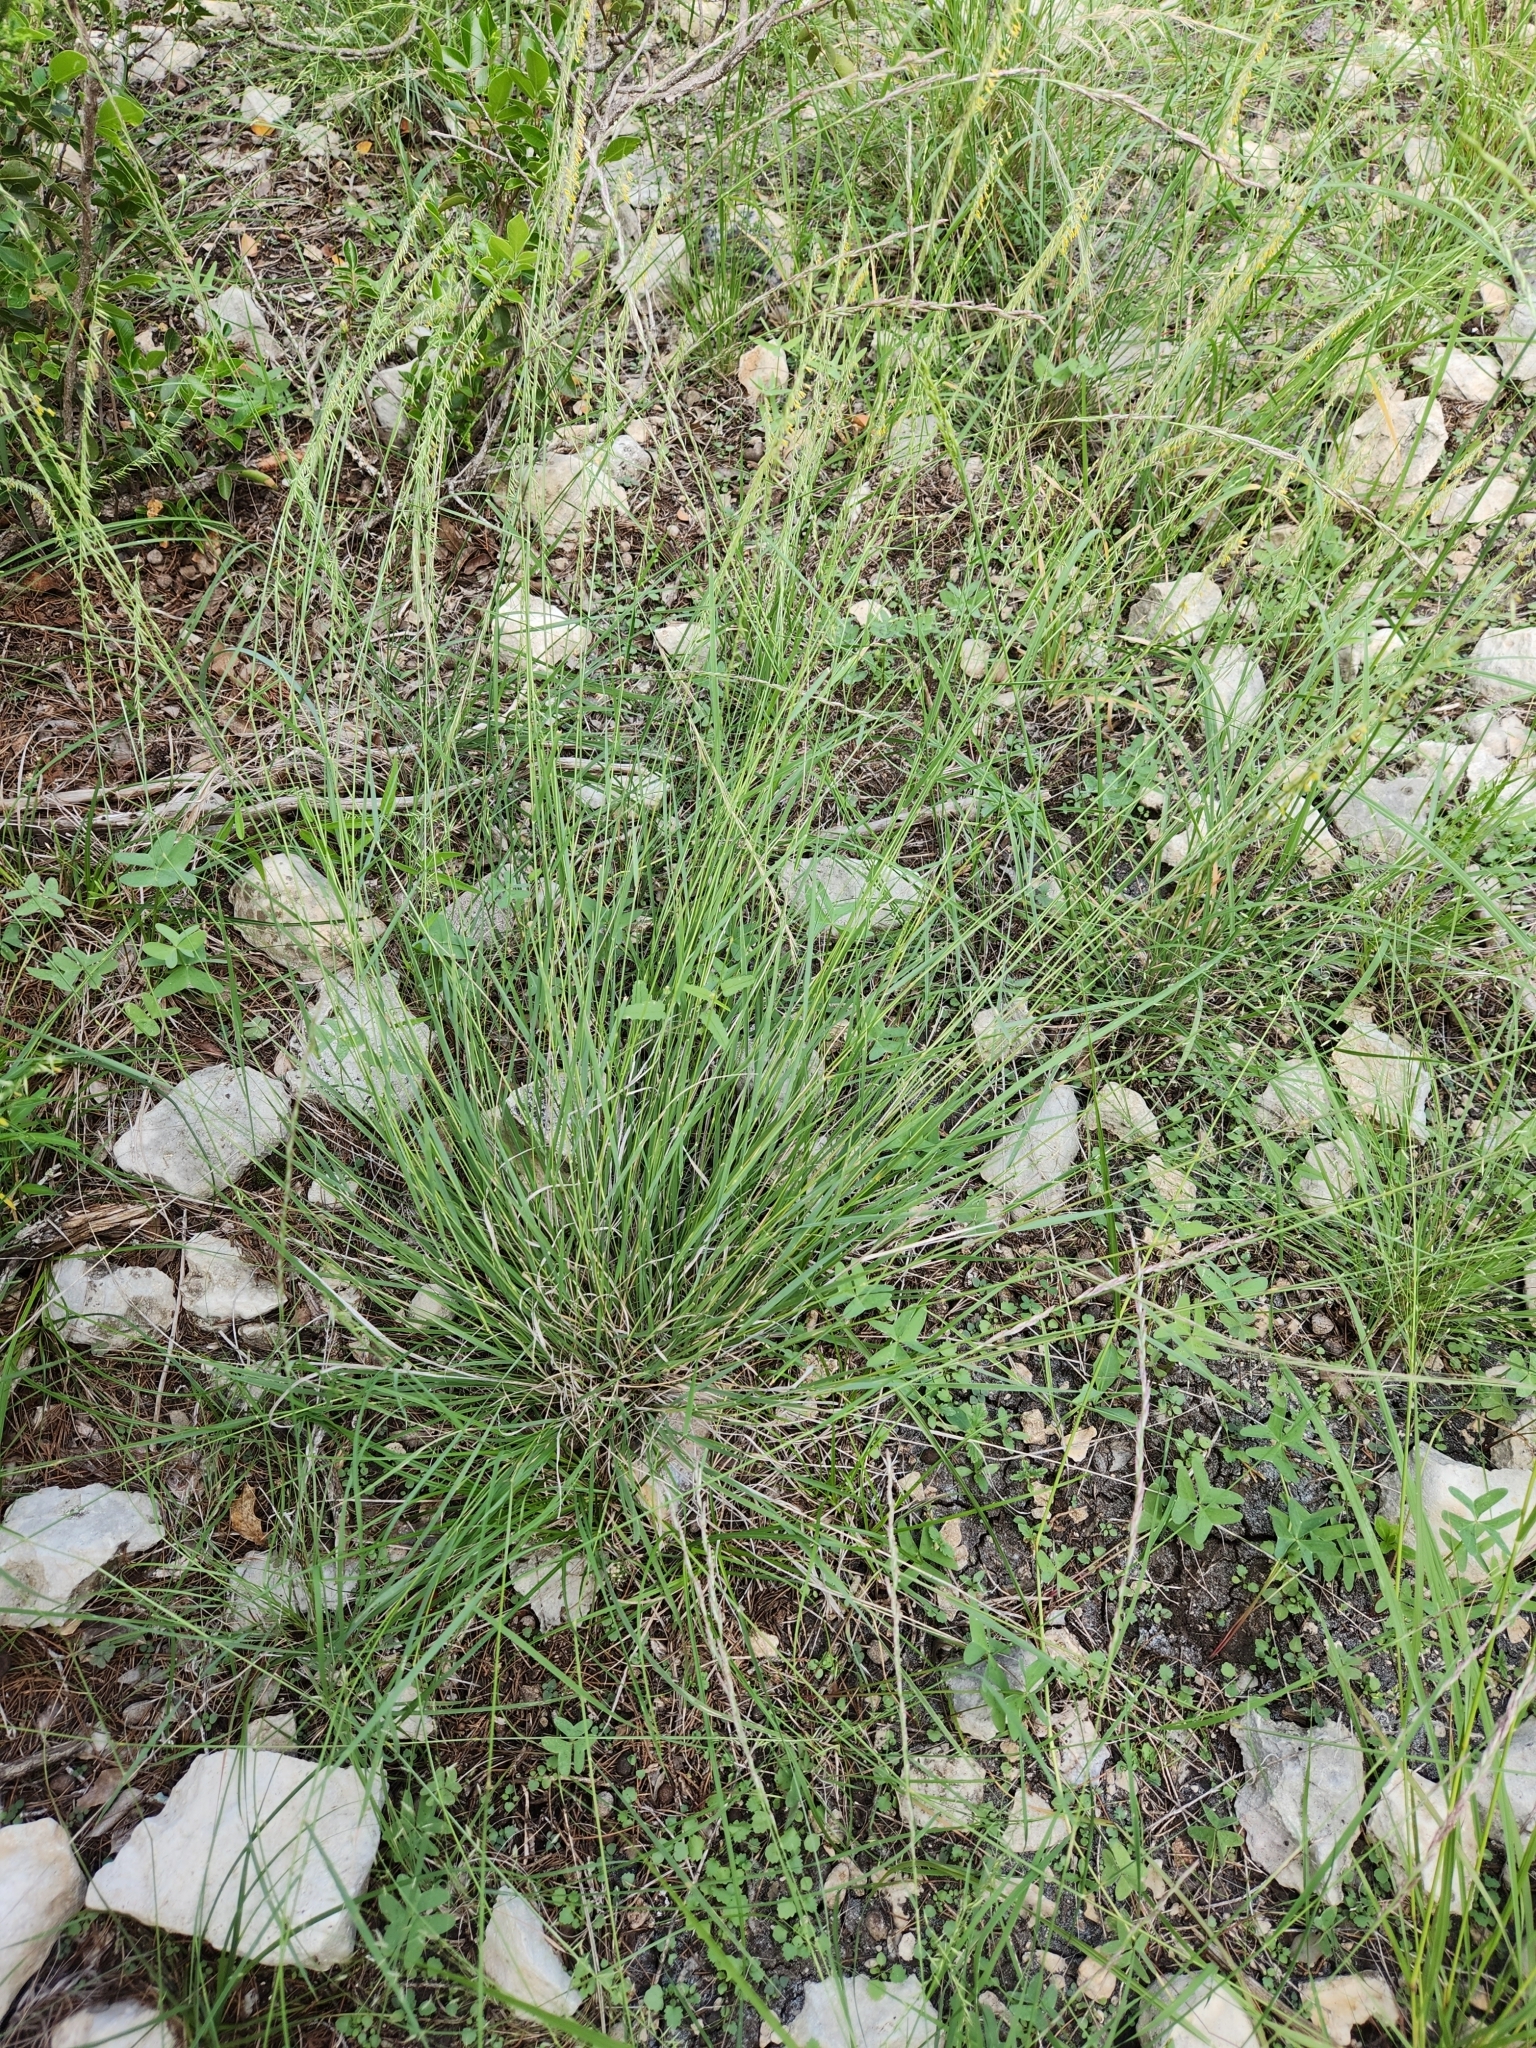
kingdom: Plantae
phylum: Tracheophyta
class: Liliopsida
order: Poales
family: Poaceae
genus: Bouteloua
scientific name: Bouteloua uniflora
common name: Neally's grama
